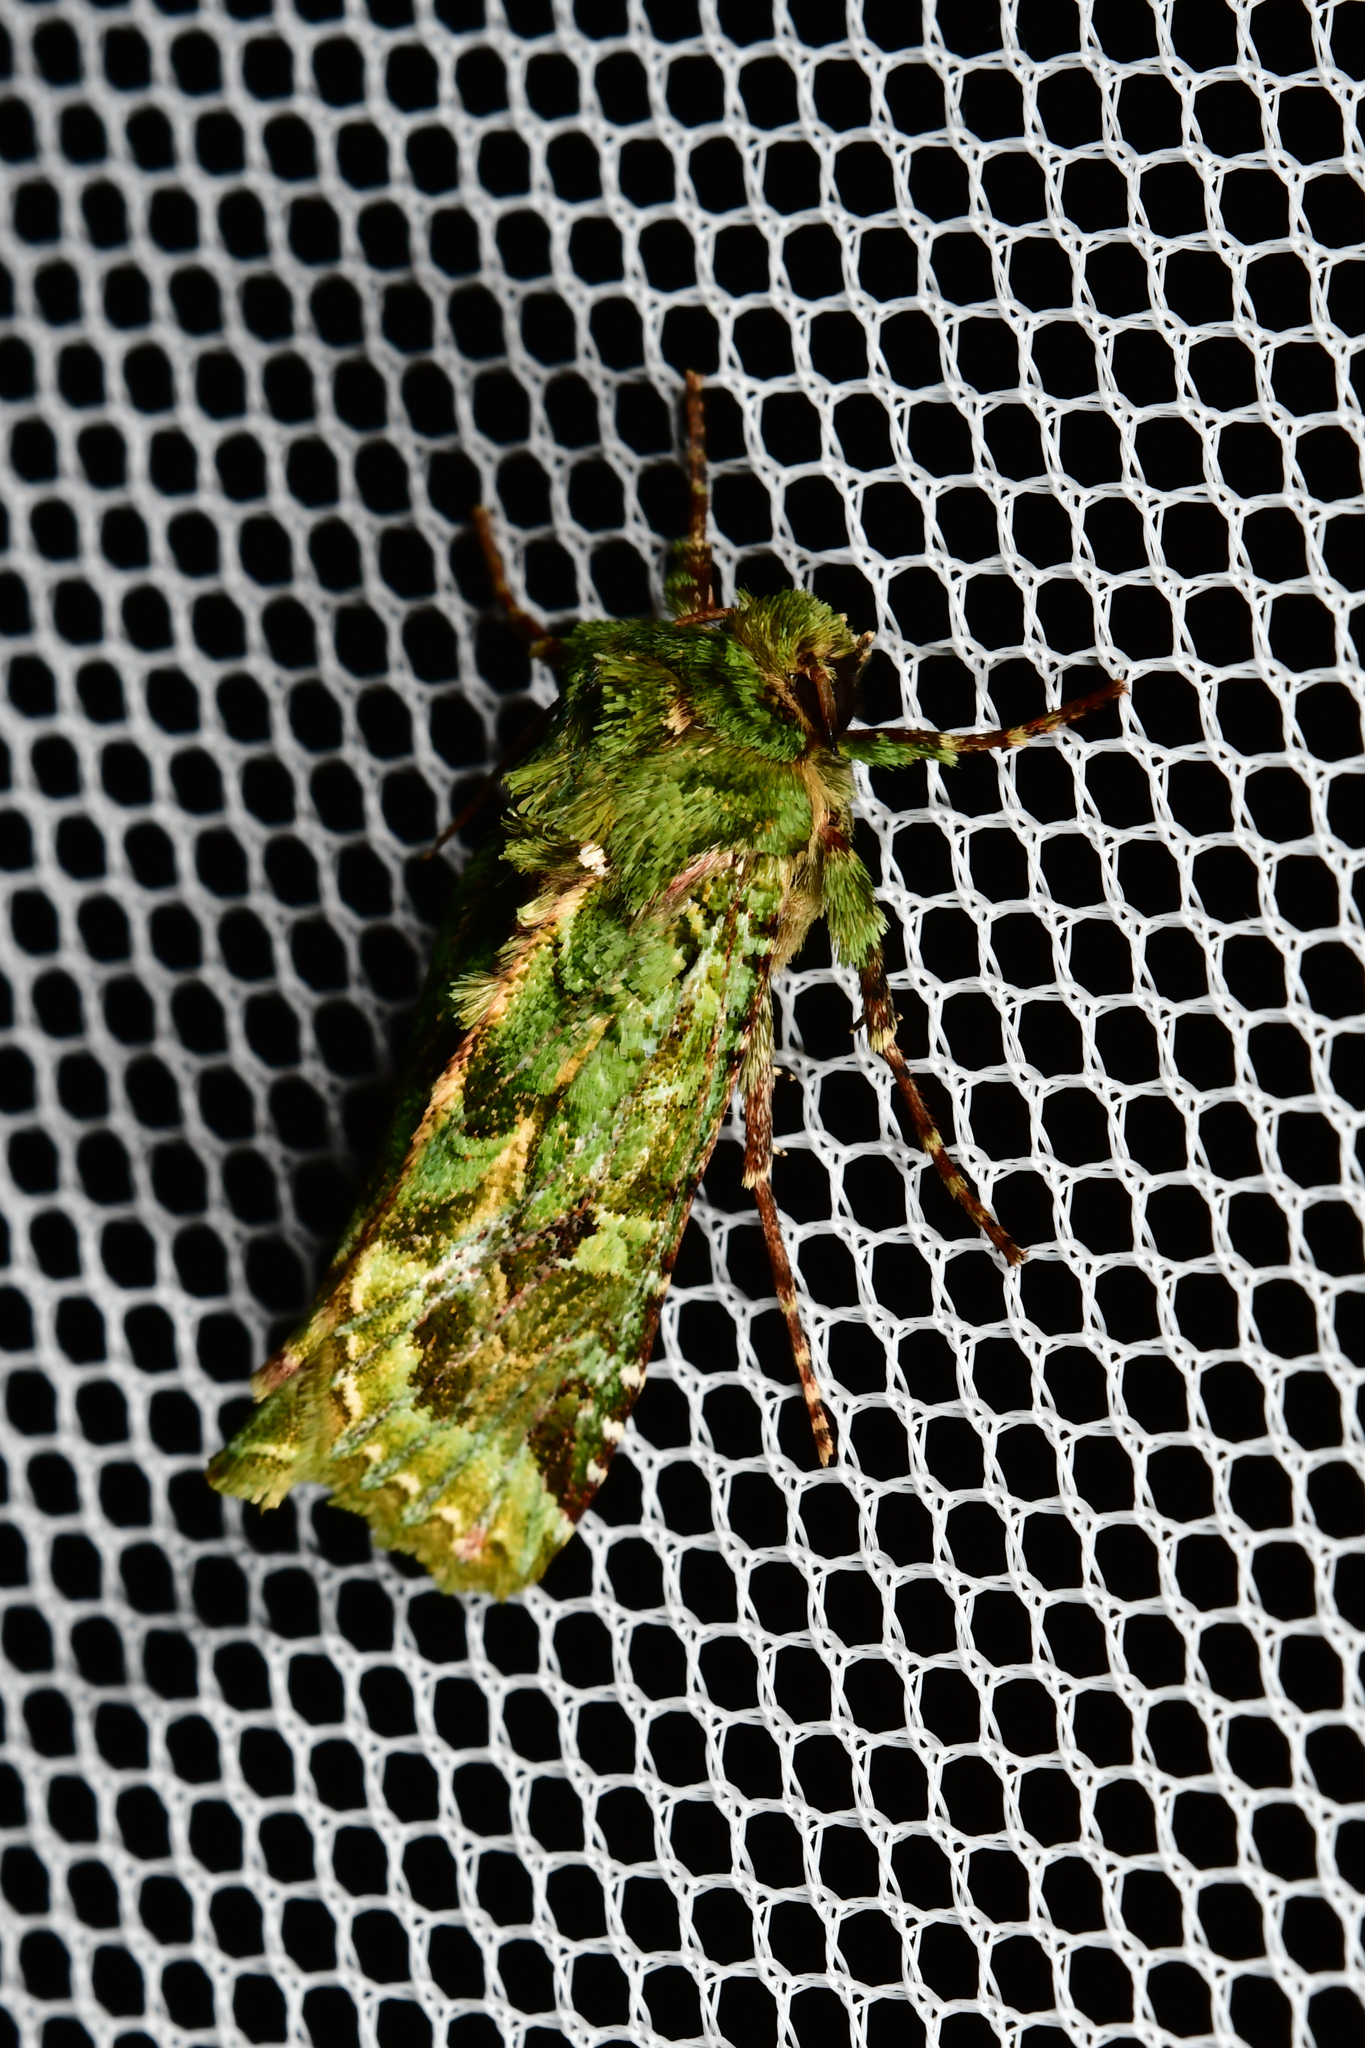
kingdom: Animalia
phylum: Arthropoda
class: Insecta
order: Lepidoptera
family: Noctuidae
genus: Feredayia
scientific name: Feredayia grammosa
